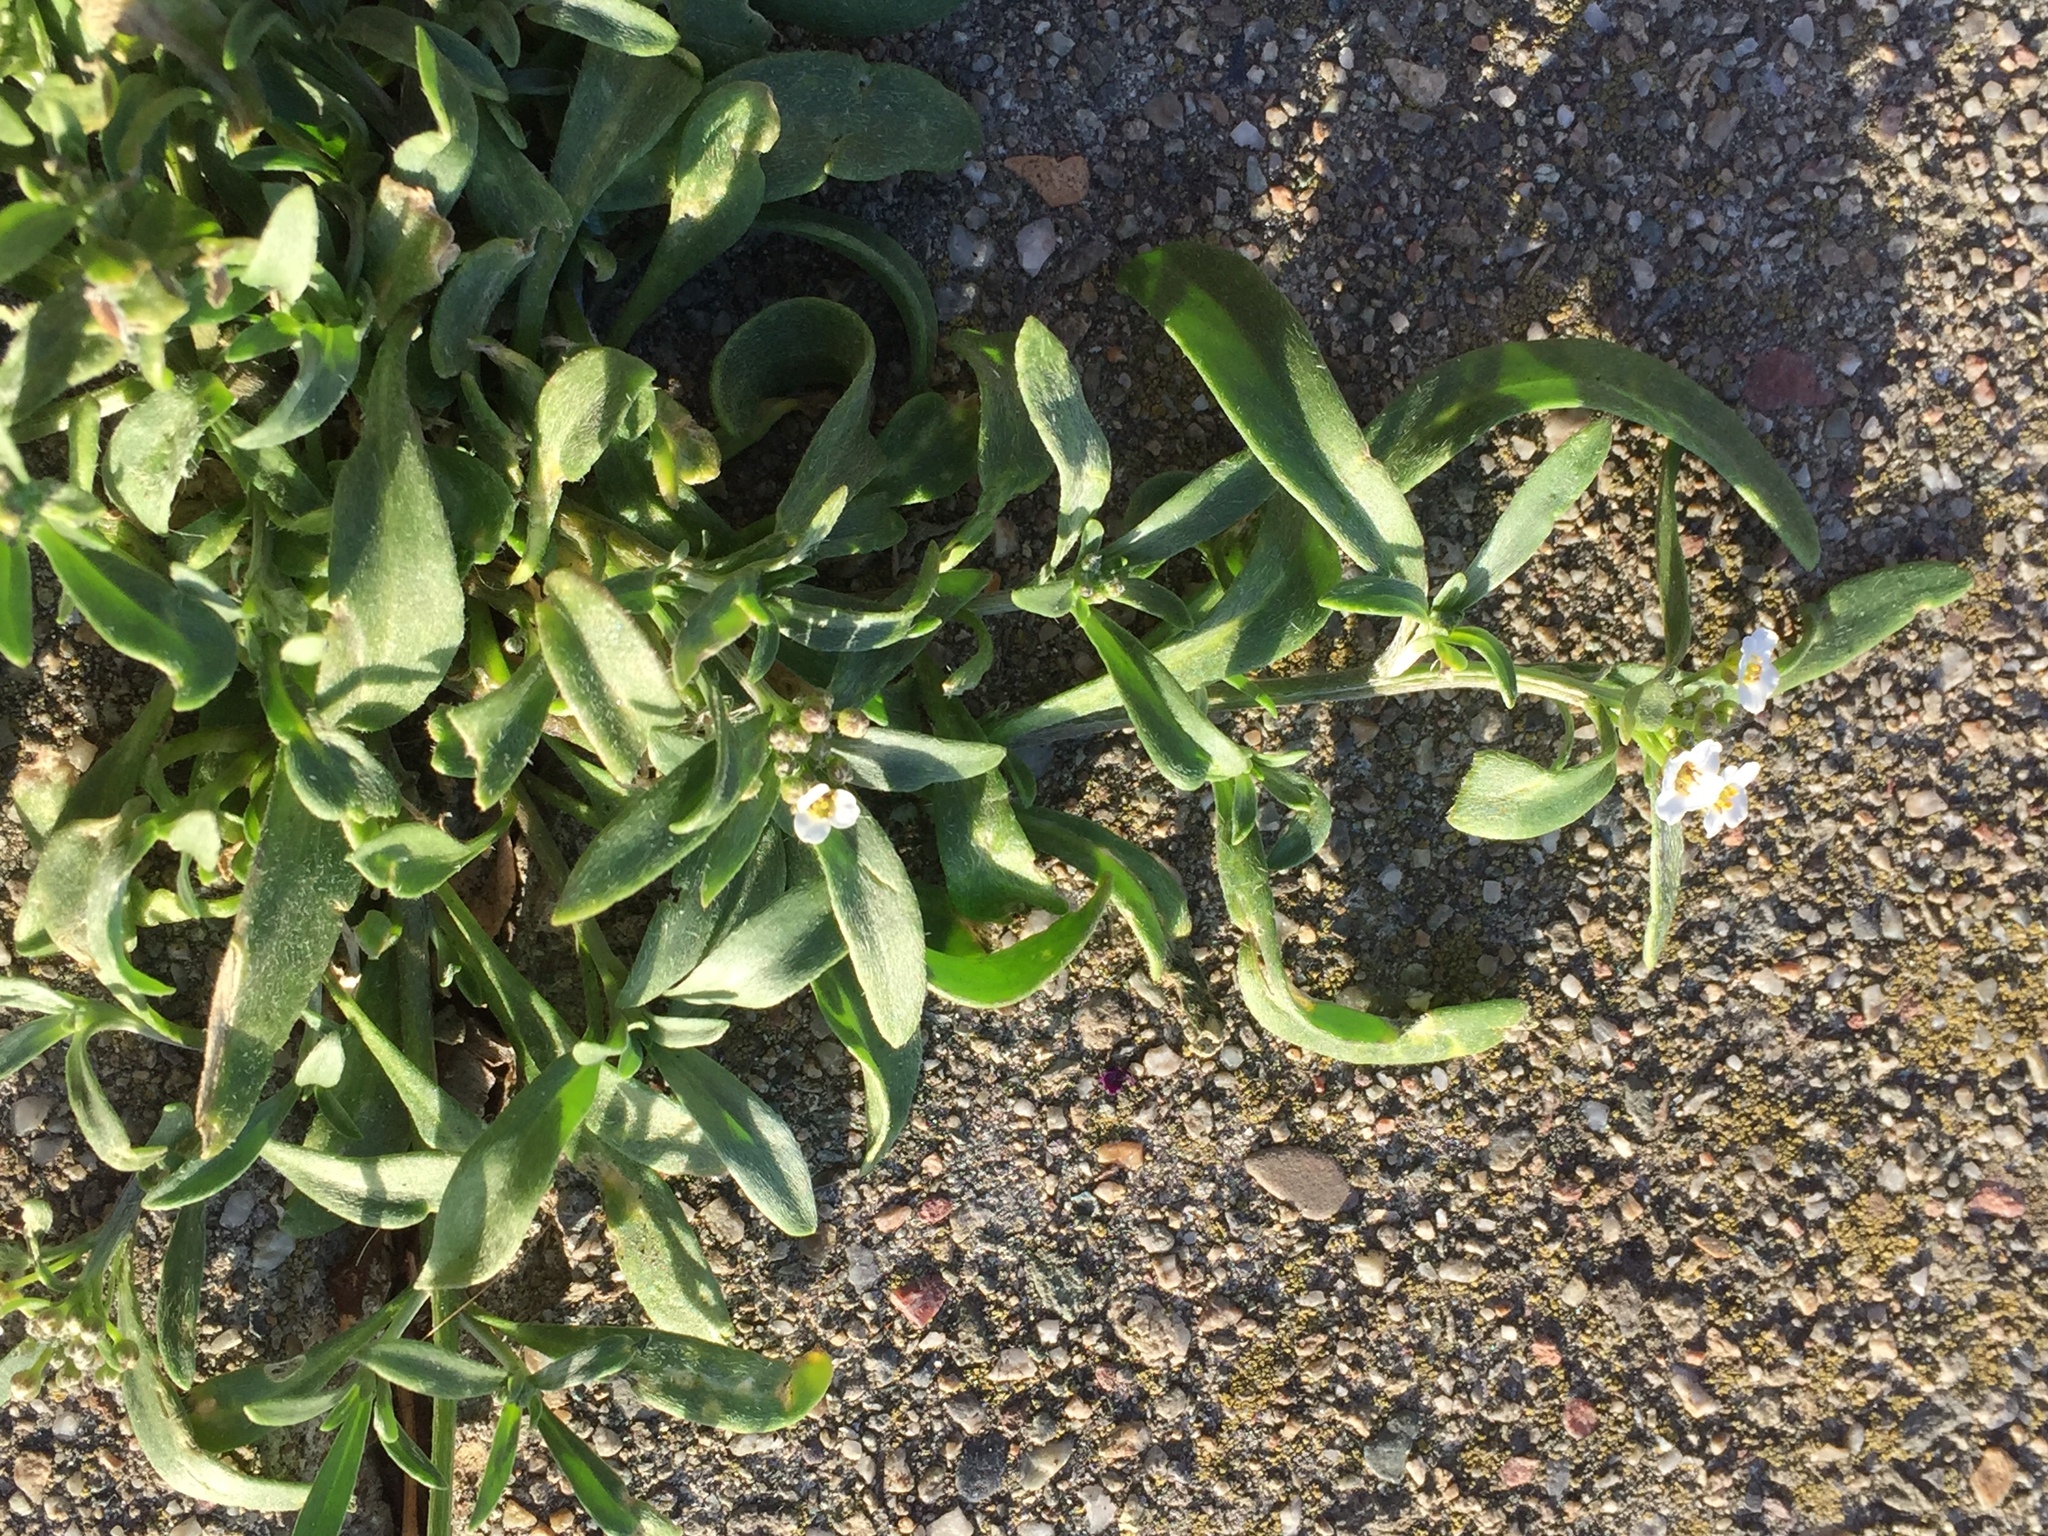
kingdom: Plantae
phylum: Tracheophyta
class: Magnoliopsida
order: Brassicales
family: Brassicaceae
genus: Lobularia
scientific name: Lobularia maritima
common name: Sweet alison
